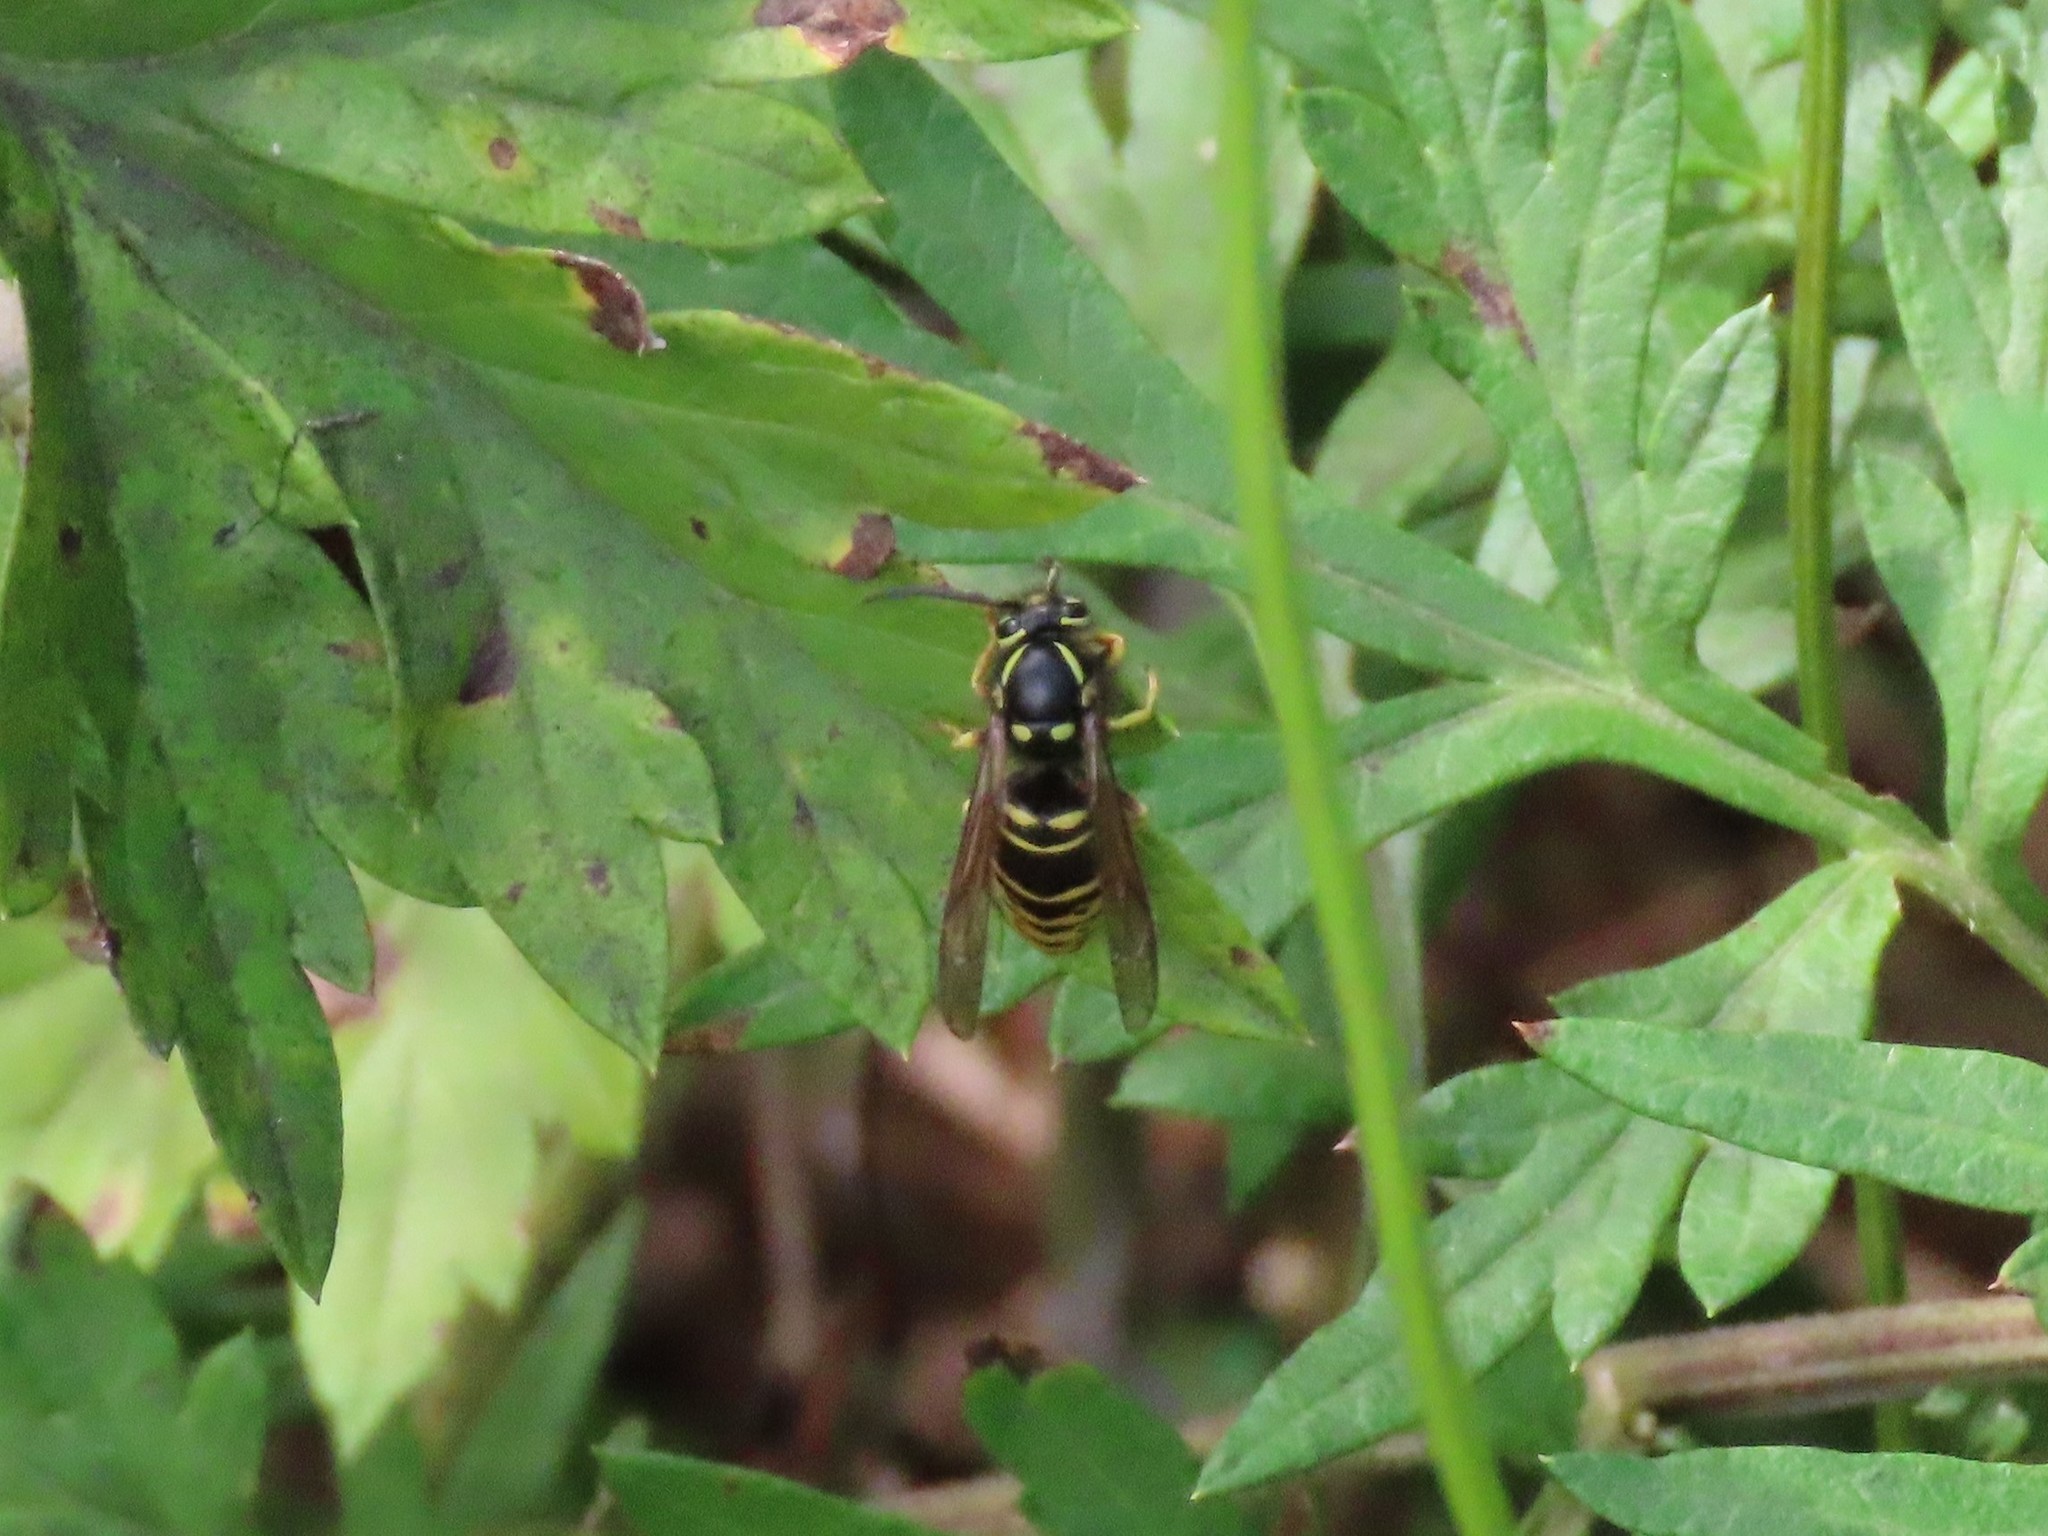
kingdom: Animalia
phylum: Arthropoda
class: Insecta
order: Hymenoptera
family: Vespidae
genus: Vespula
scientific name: Vespula vidua
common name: Widow yellowjacket
